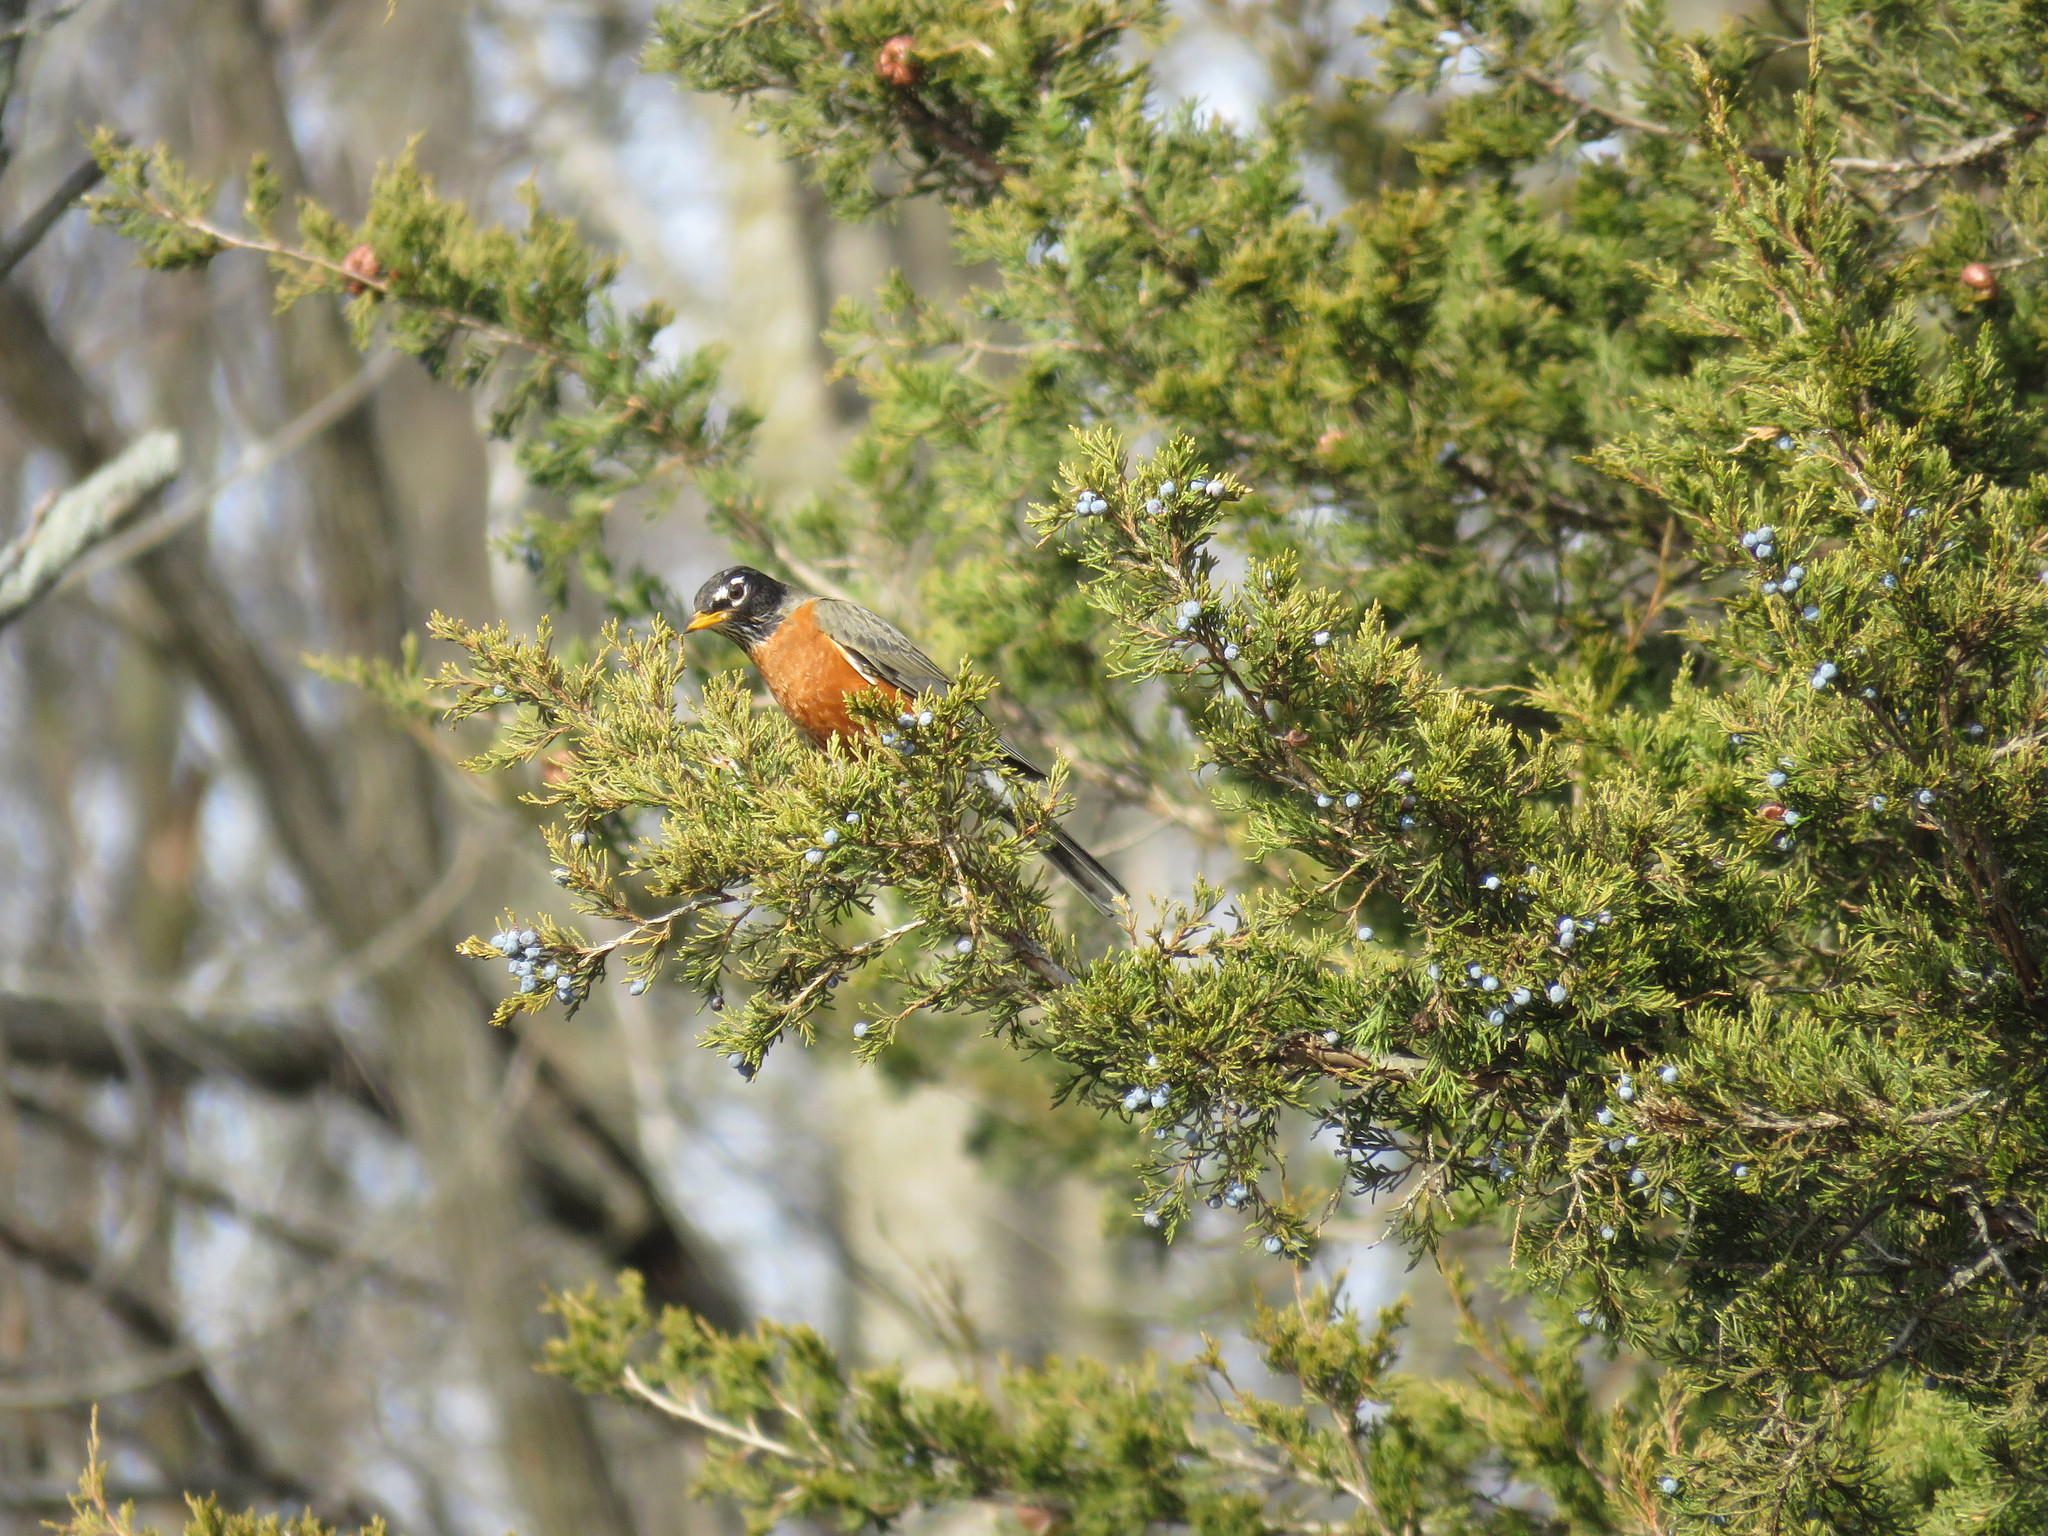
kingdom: Animalia
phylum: Chordata
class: Aves
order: Passeriformes
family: Turdidae
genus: Turdus
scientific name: Turdus migratorius
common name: American robin
